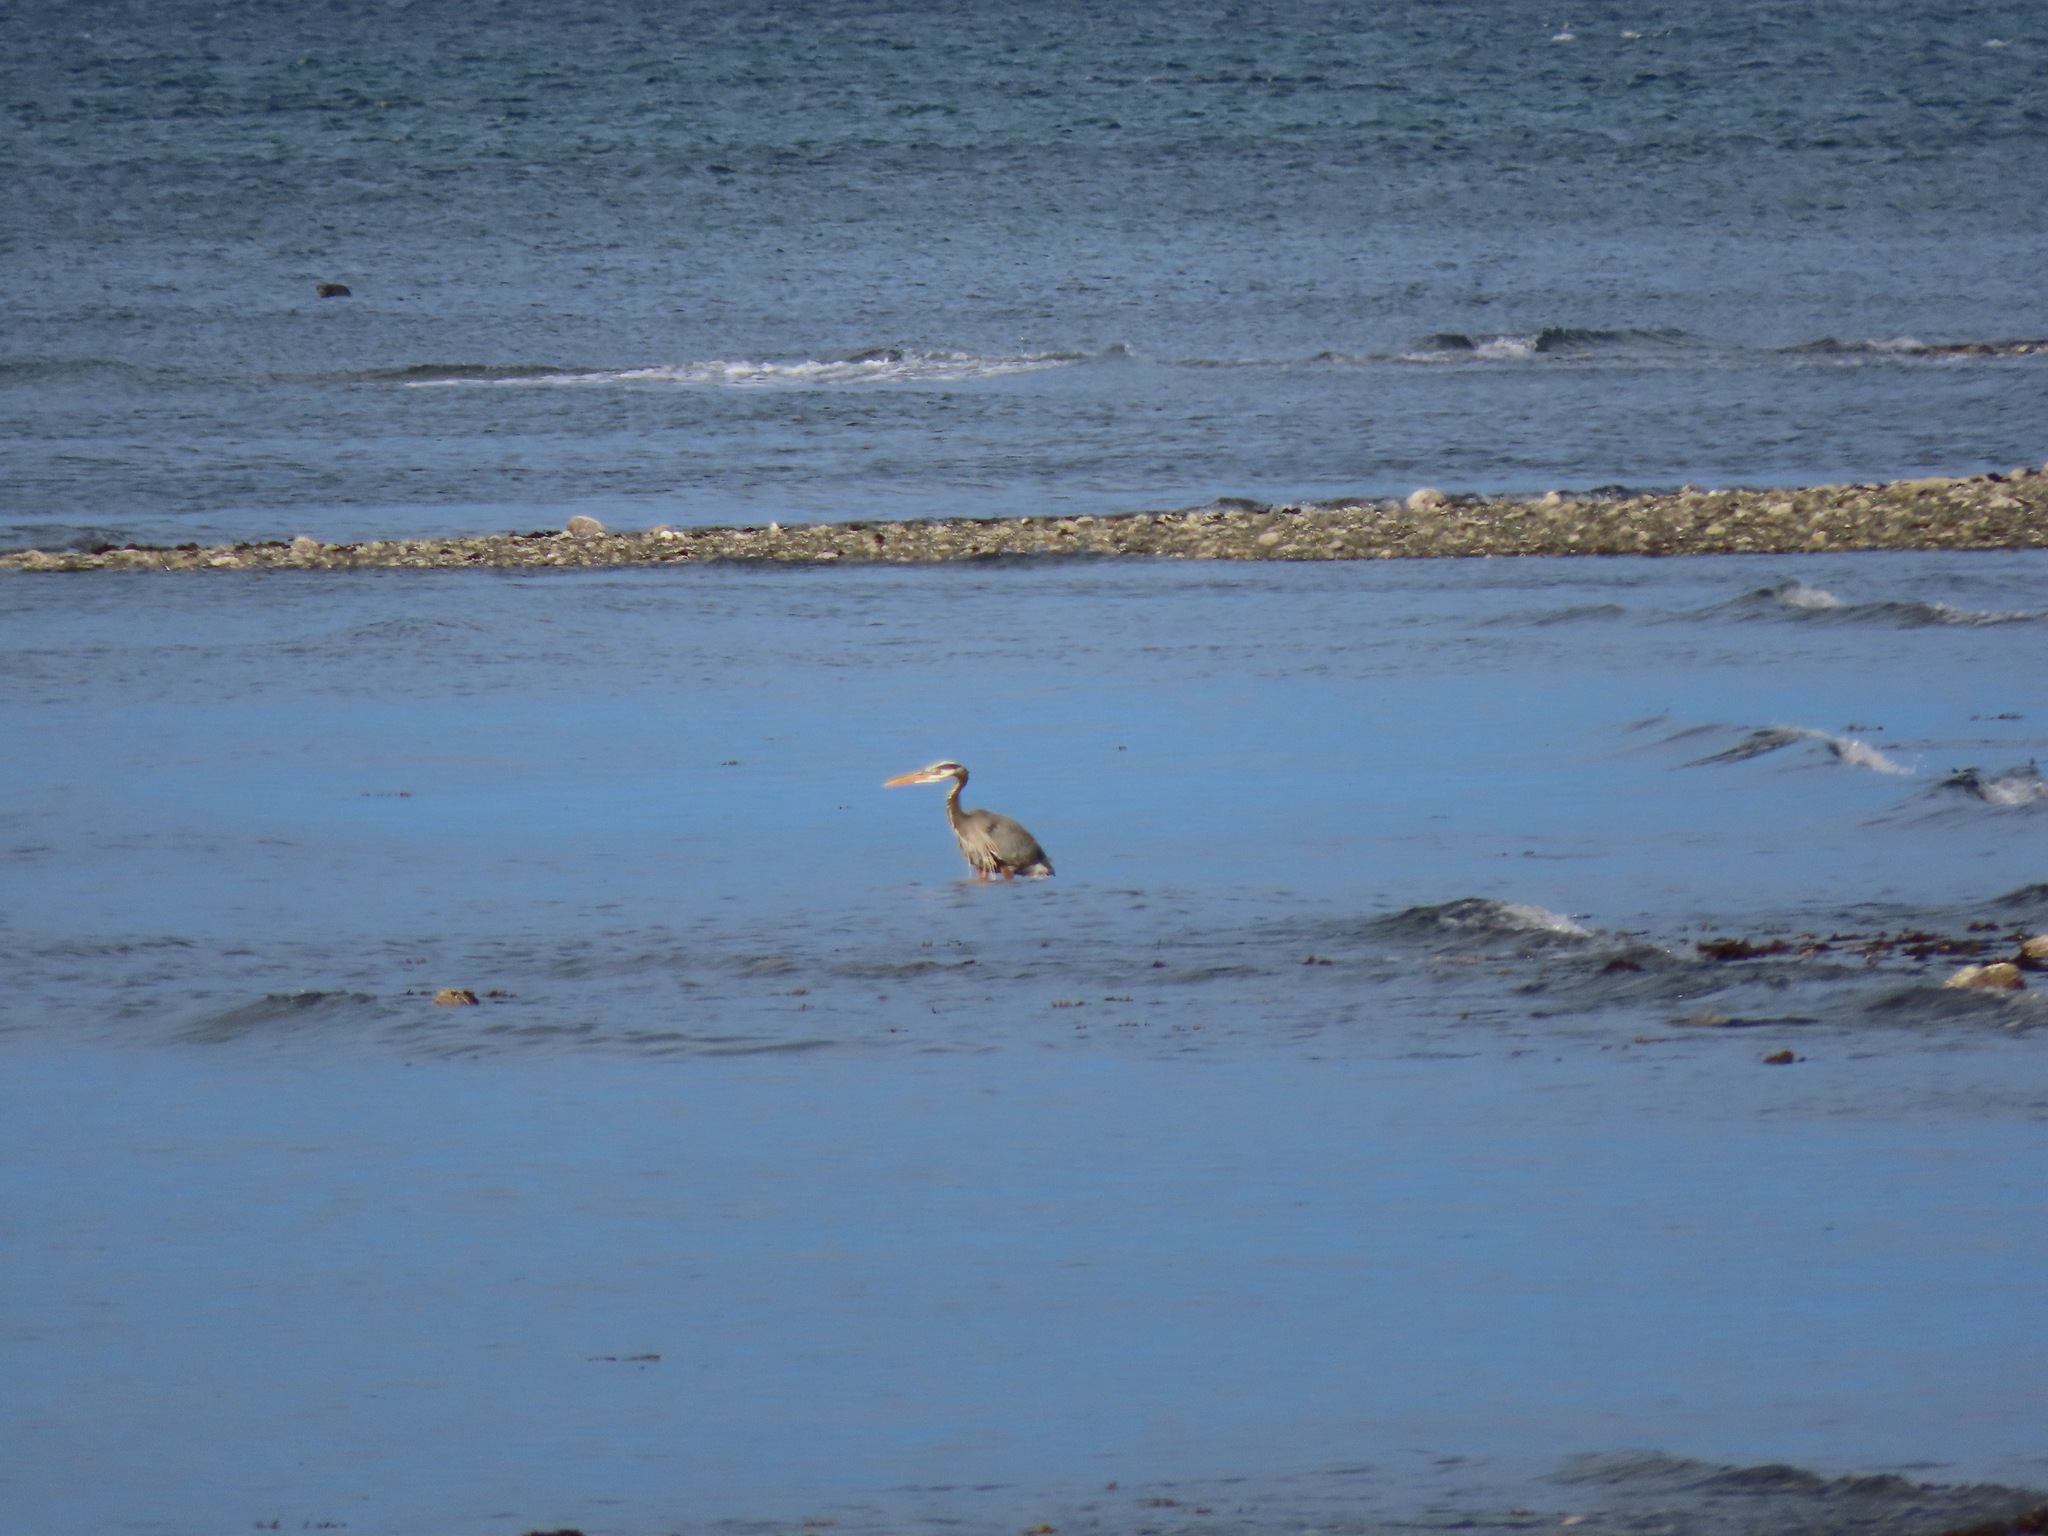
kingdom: Animalia
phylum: Chordata
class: Aves
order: Pelecaniformes
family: Ardeidae
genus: Ardea
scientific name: Ardea herodias
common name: Great blue heron
